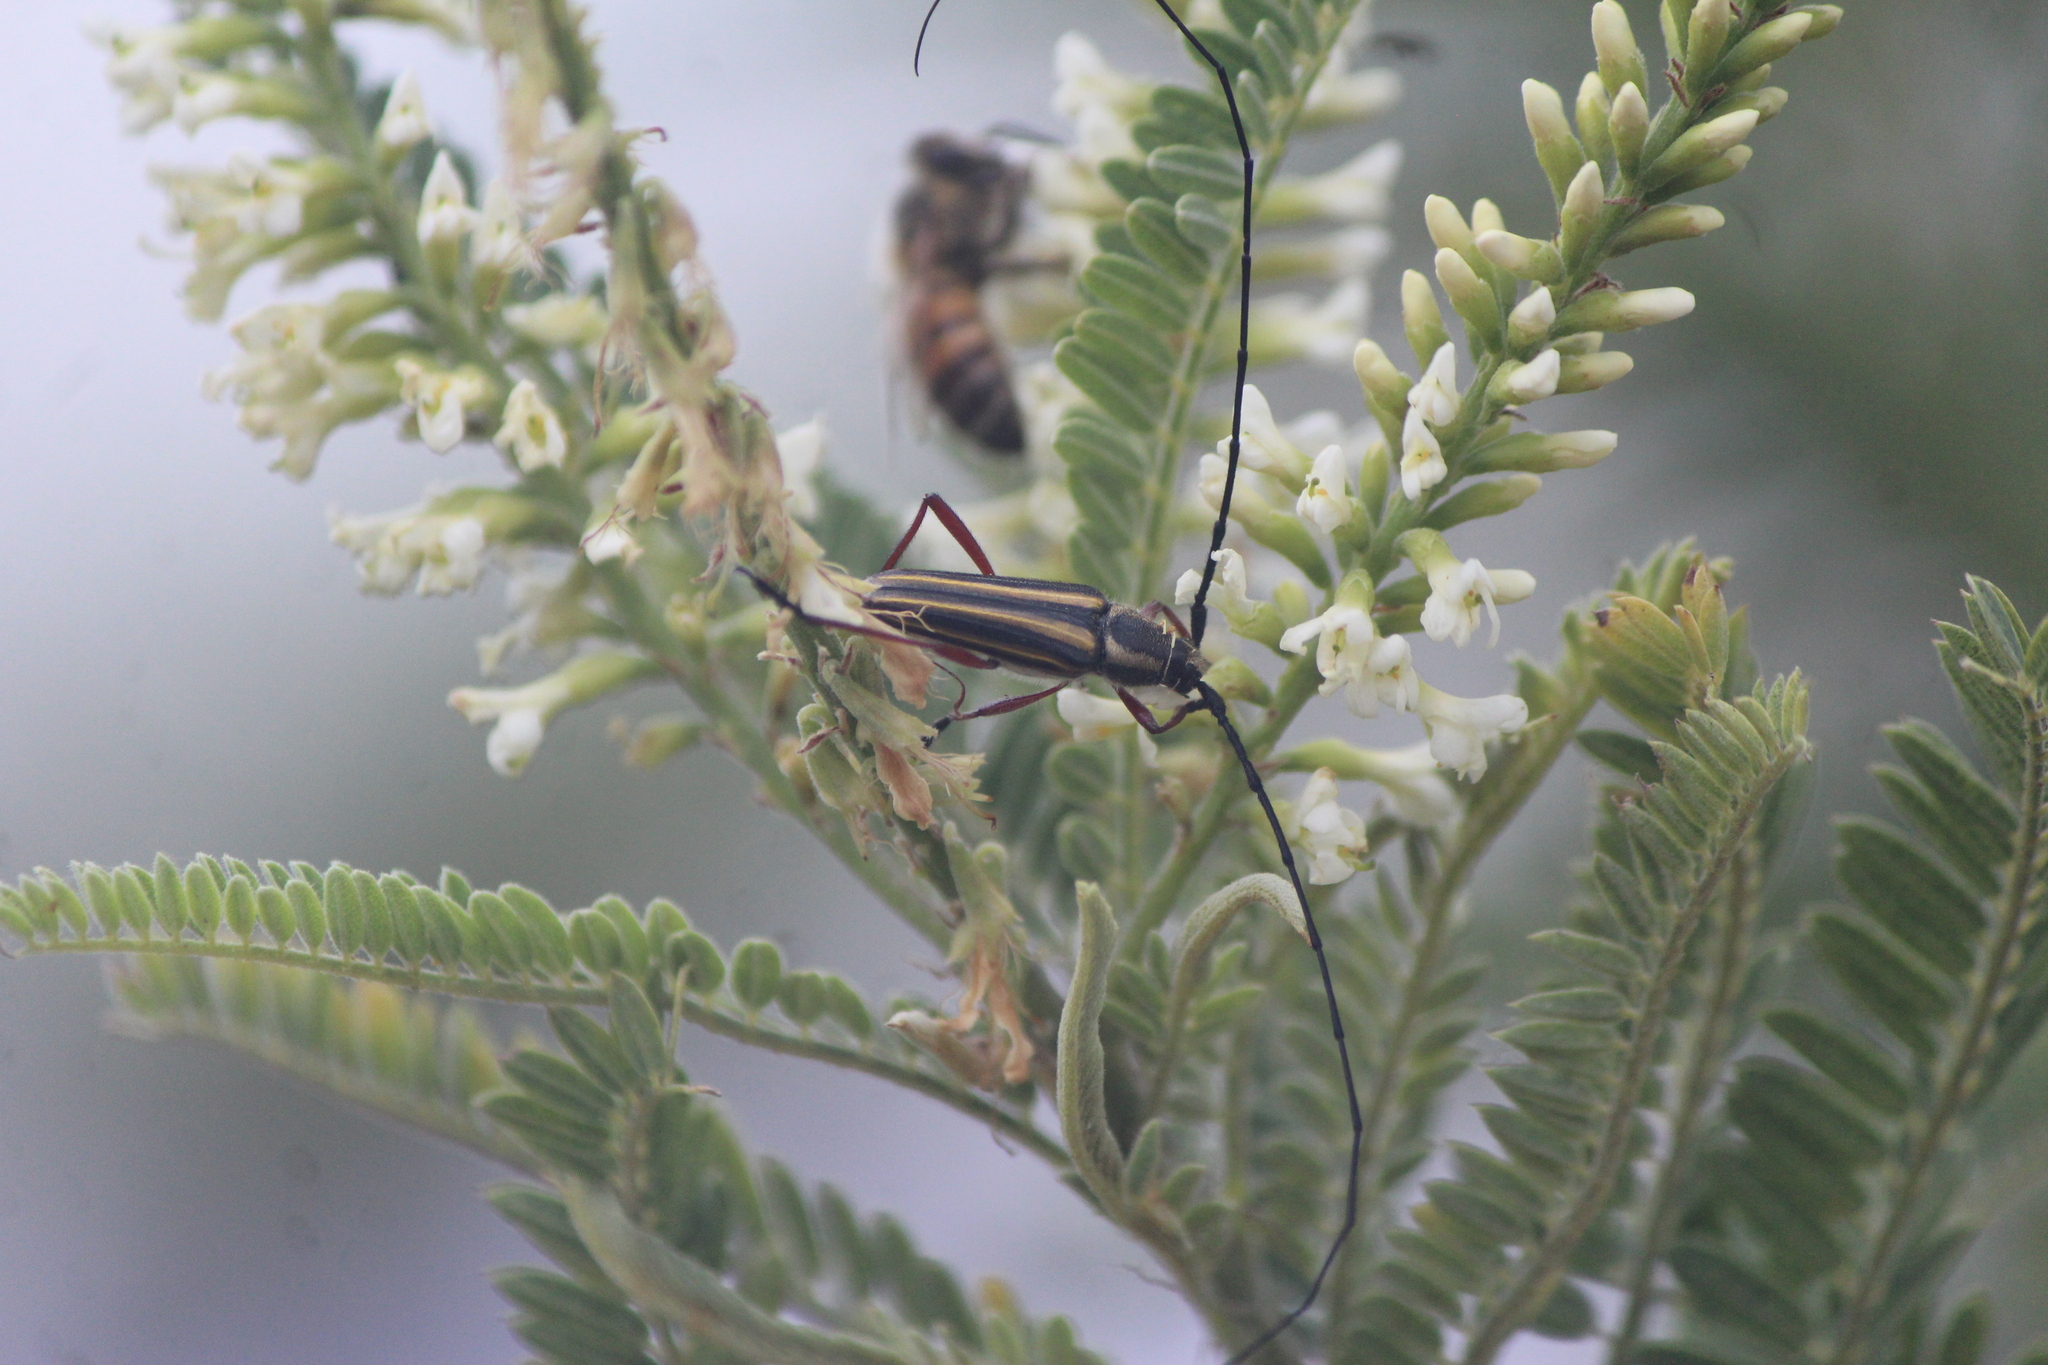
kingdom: Animalia
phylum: Arthropoda
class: Insecta
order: Coleoptera
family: Cerambycidae
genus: Sphaenothecus
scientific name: Sphaenothecus bilineatus
